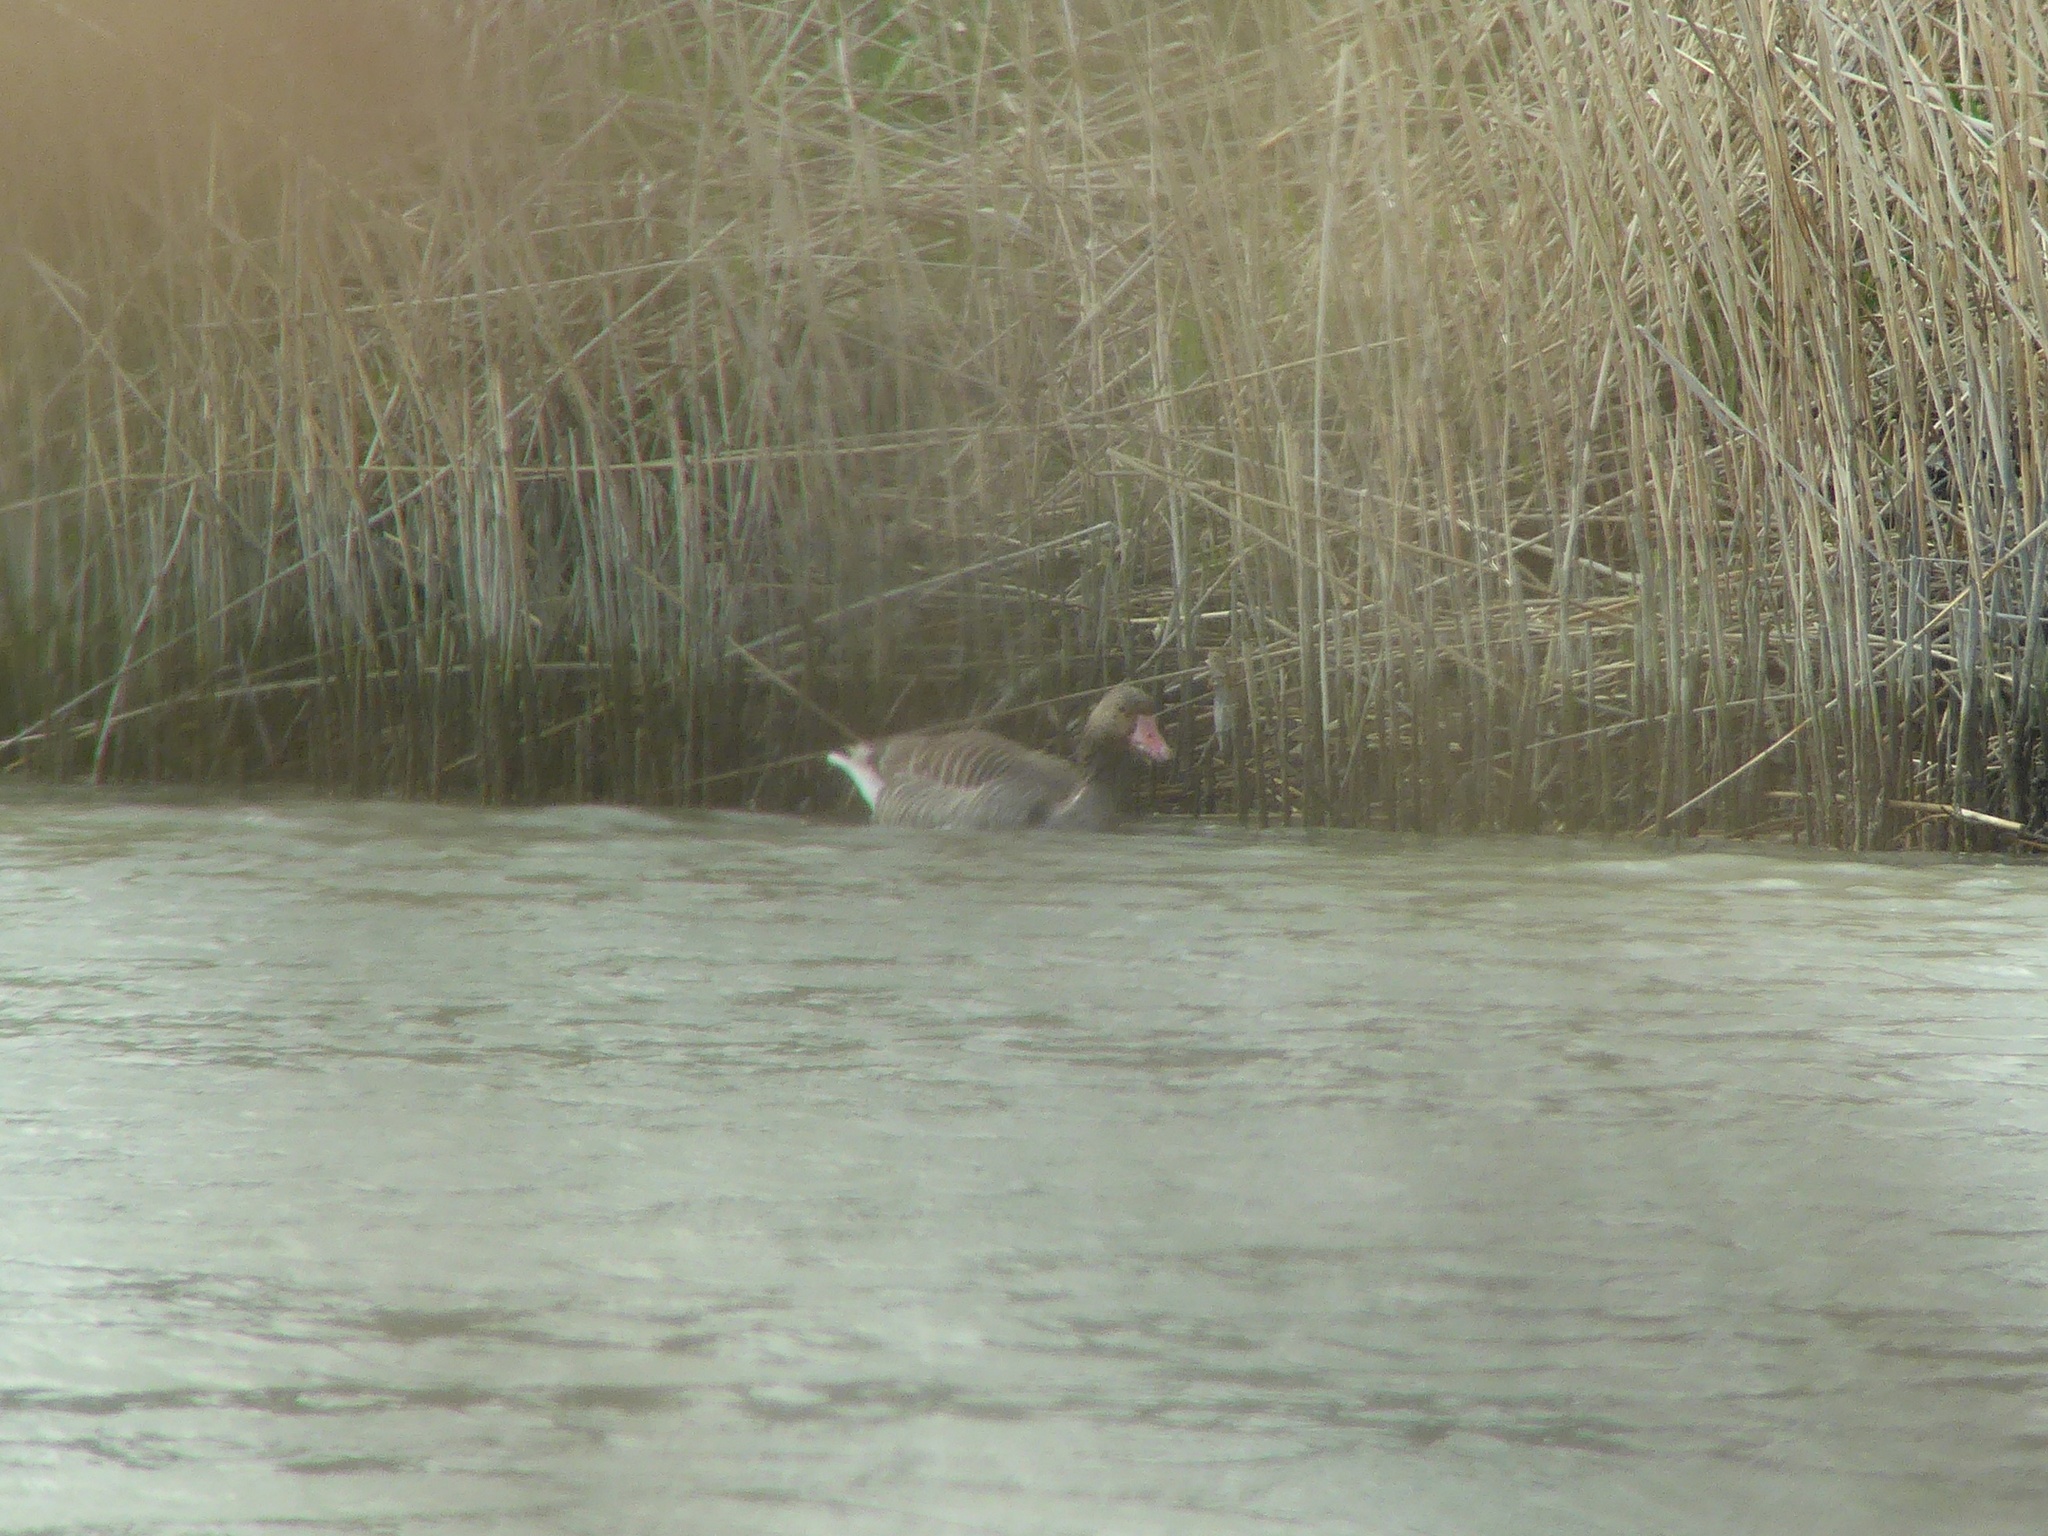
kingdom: Animalia
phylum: Chordata
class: Aves
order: Anseriformes
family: Anatidae
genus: Anser
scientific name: Anser anser
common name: Greylag goose
